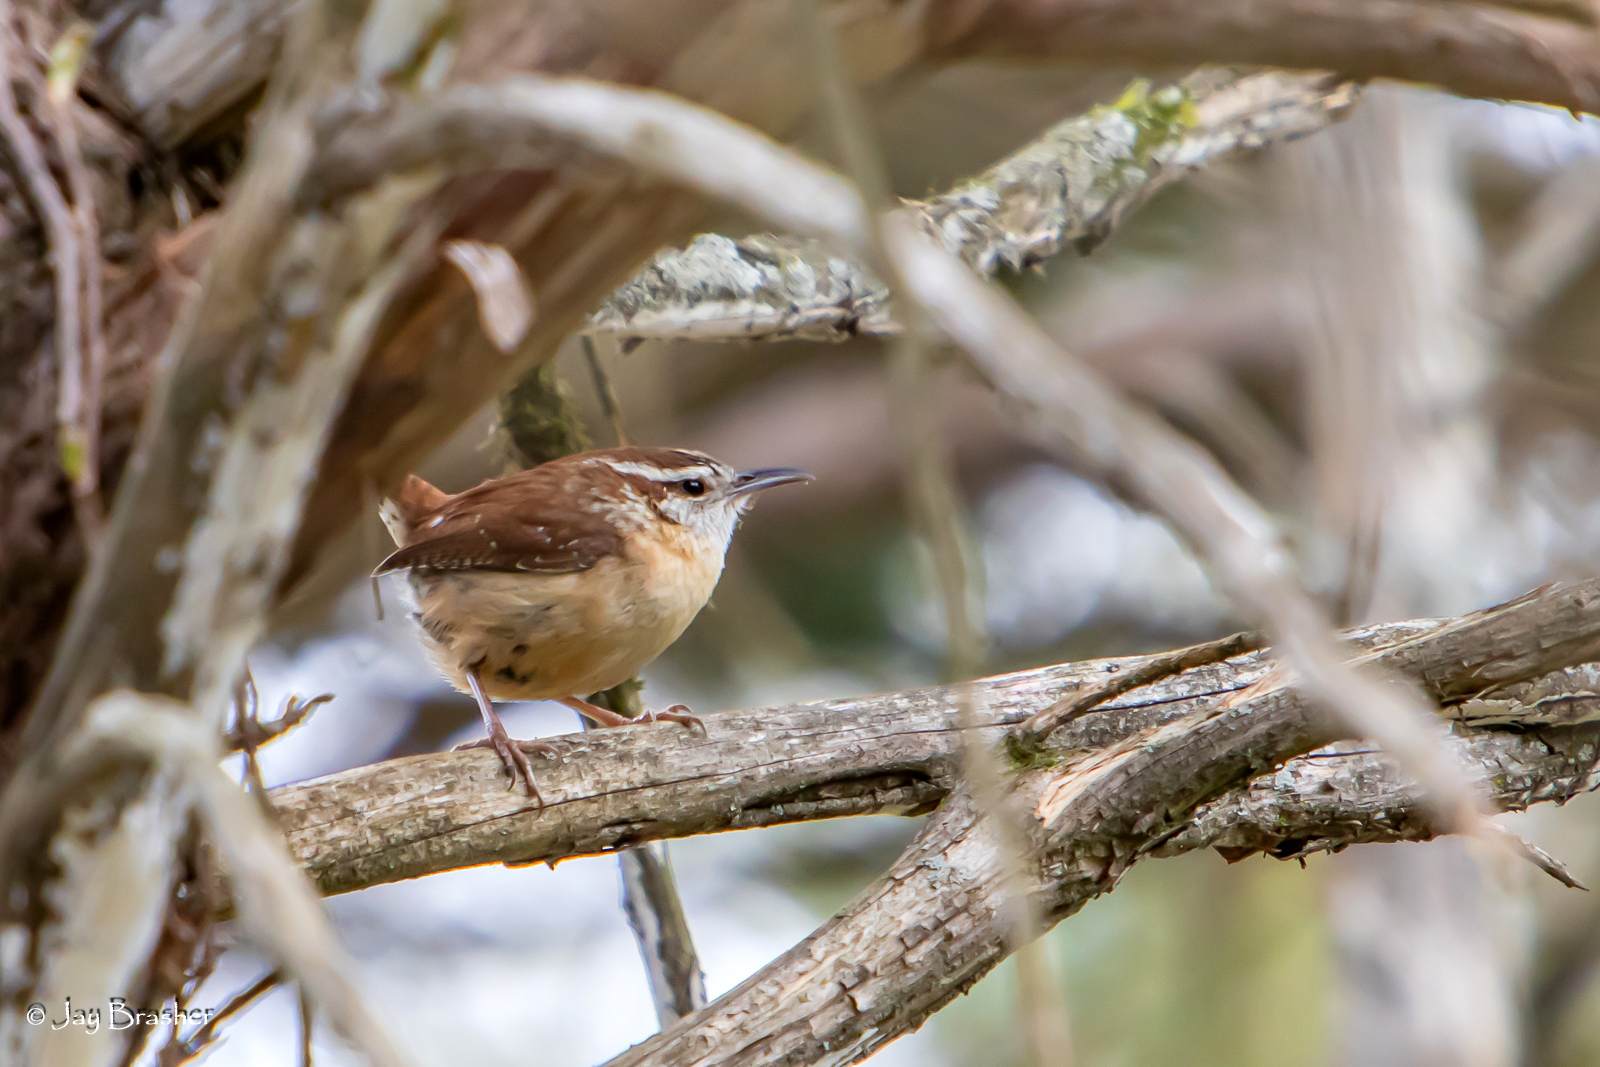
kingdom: Animalia
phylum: Chordata
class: Aves
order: Passeriformes
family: Troglodytidae
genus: Thryothorus
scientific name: Thryothorus ludovicianus
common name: Carolina wren
